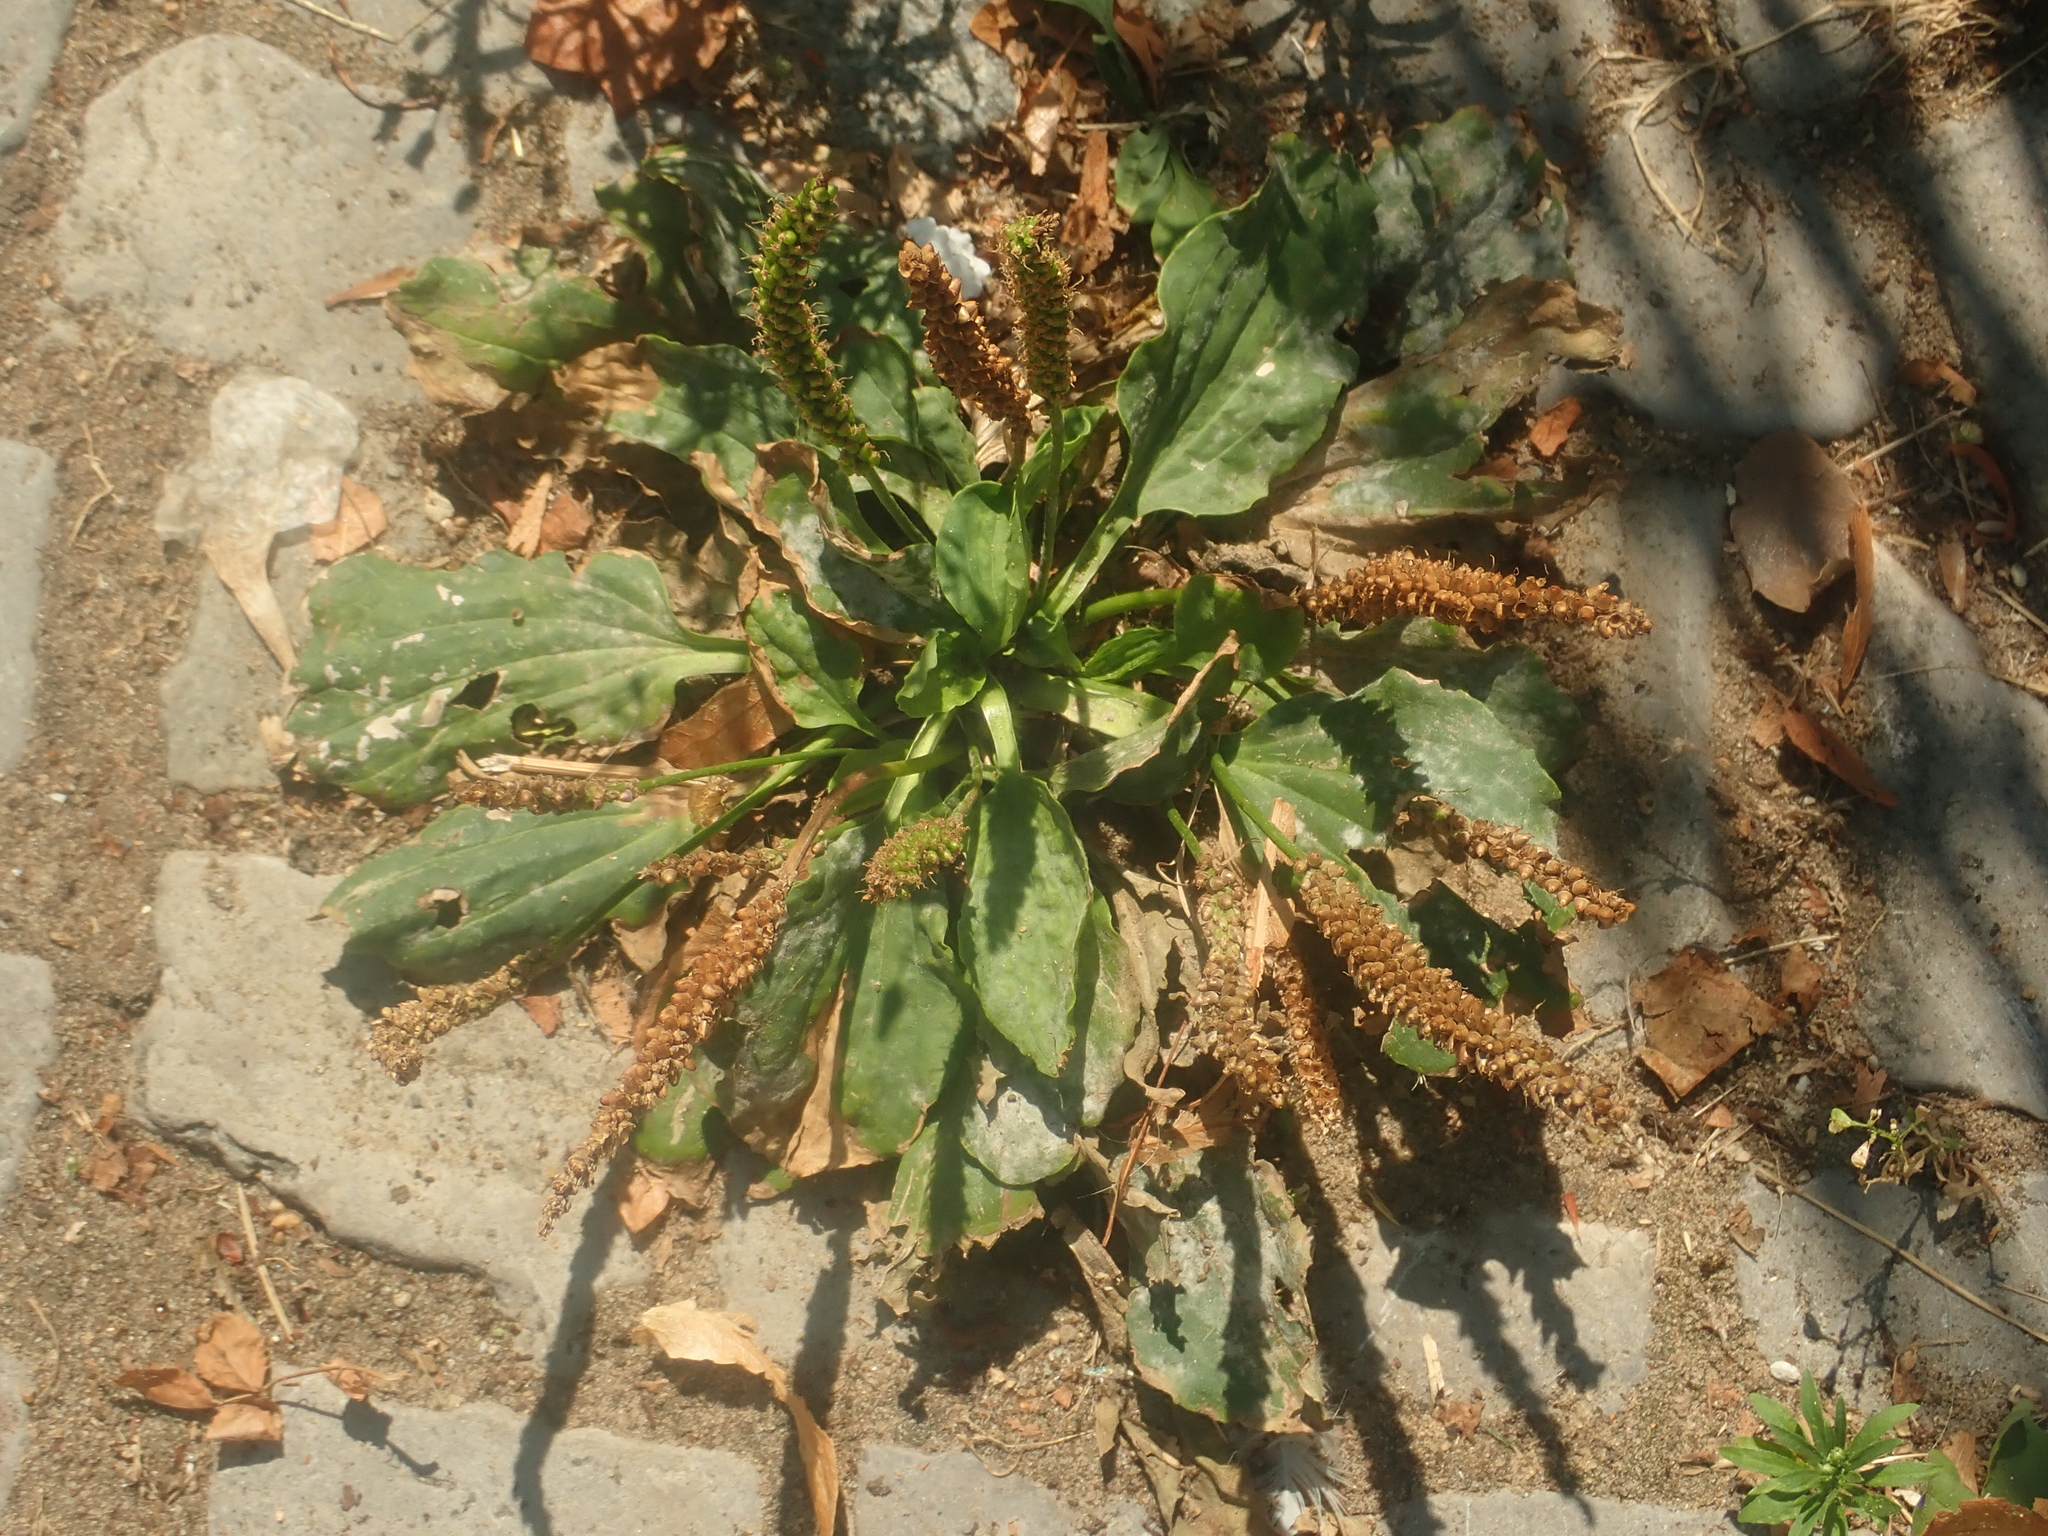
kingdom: Plantae
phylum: Tracheophyta
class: Magnoliopsida
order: Lamiales
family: Plantaginaceae
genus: Plantago
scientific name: Plantago major
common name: Common plantain
